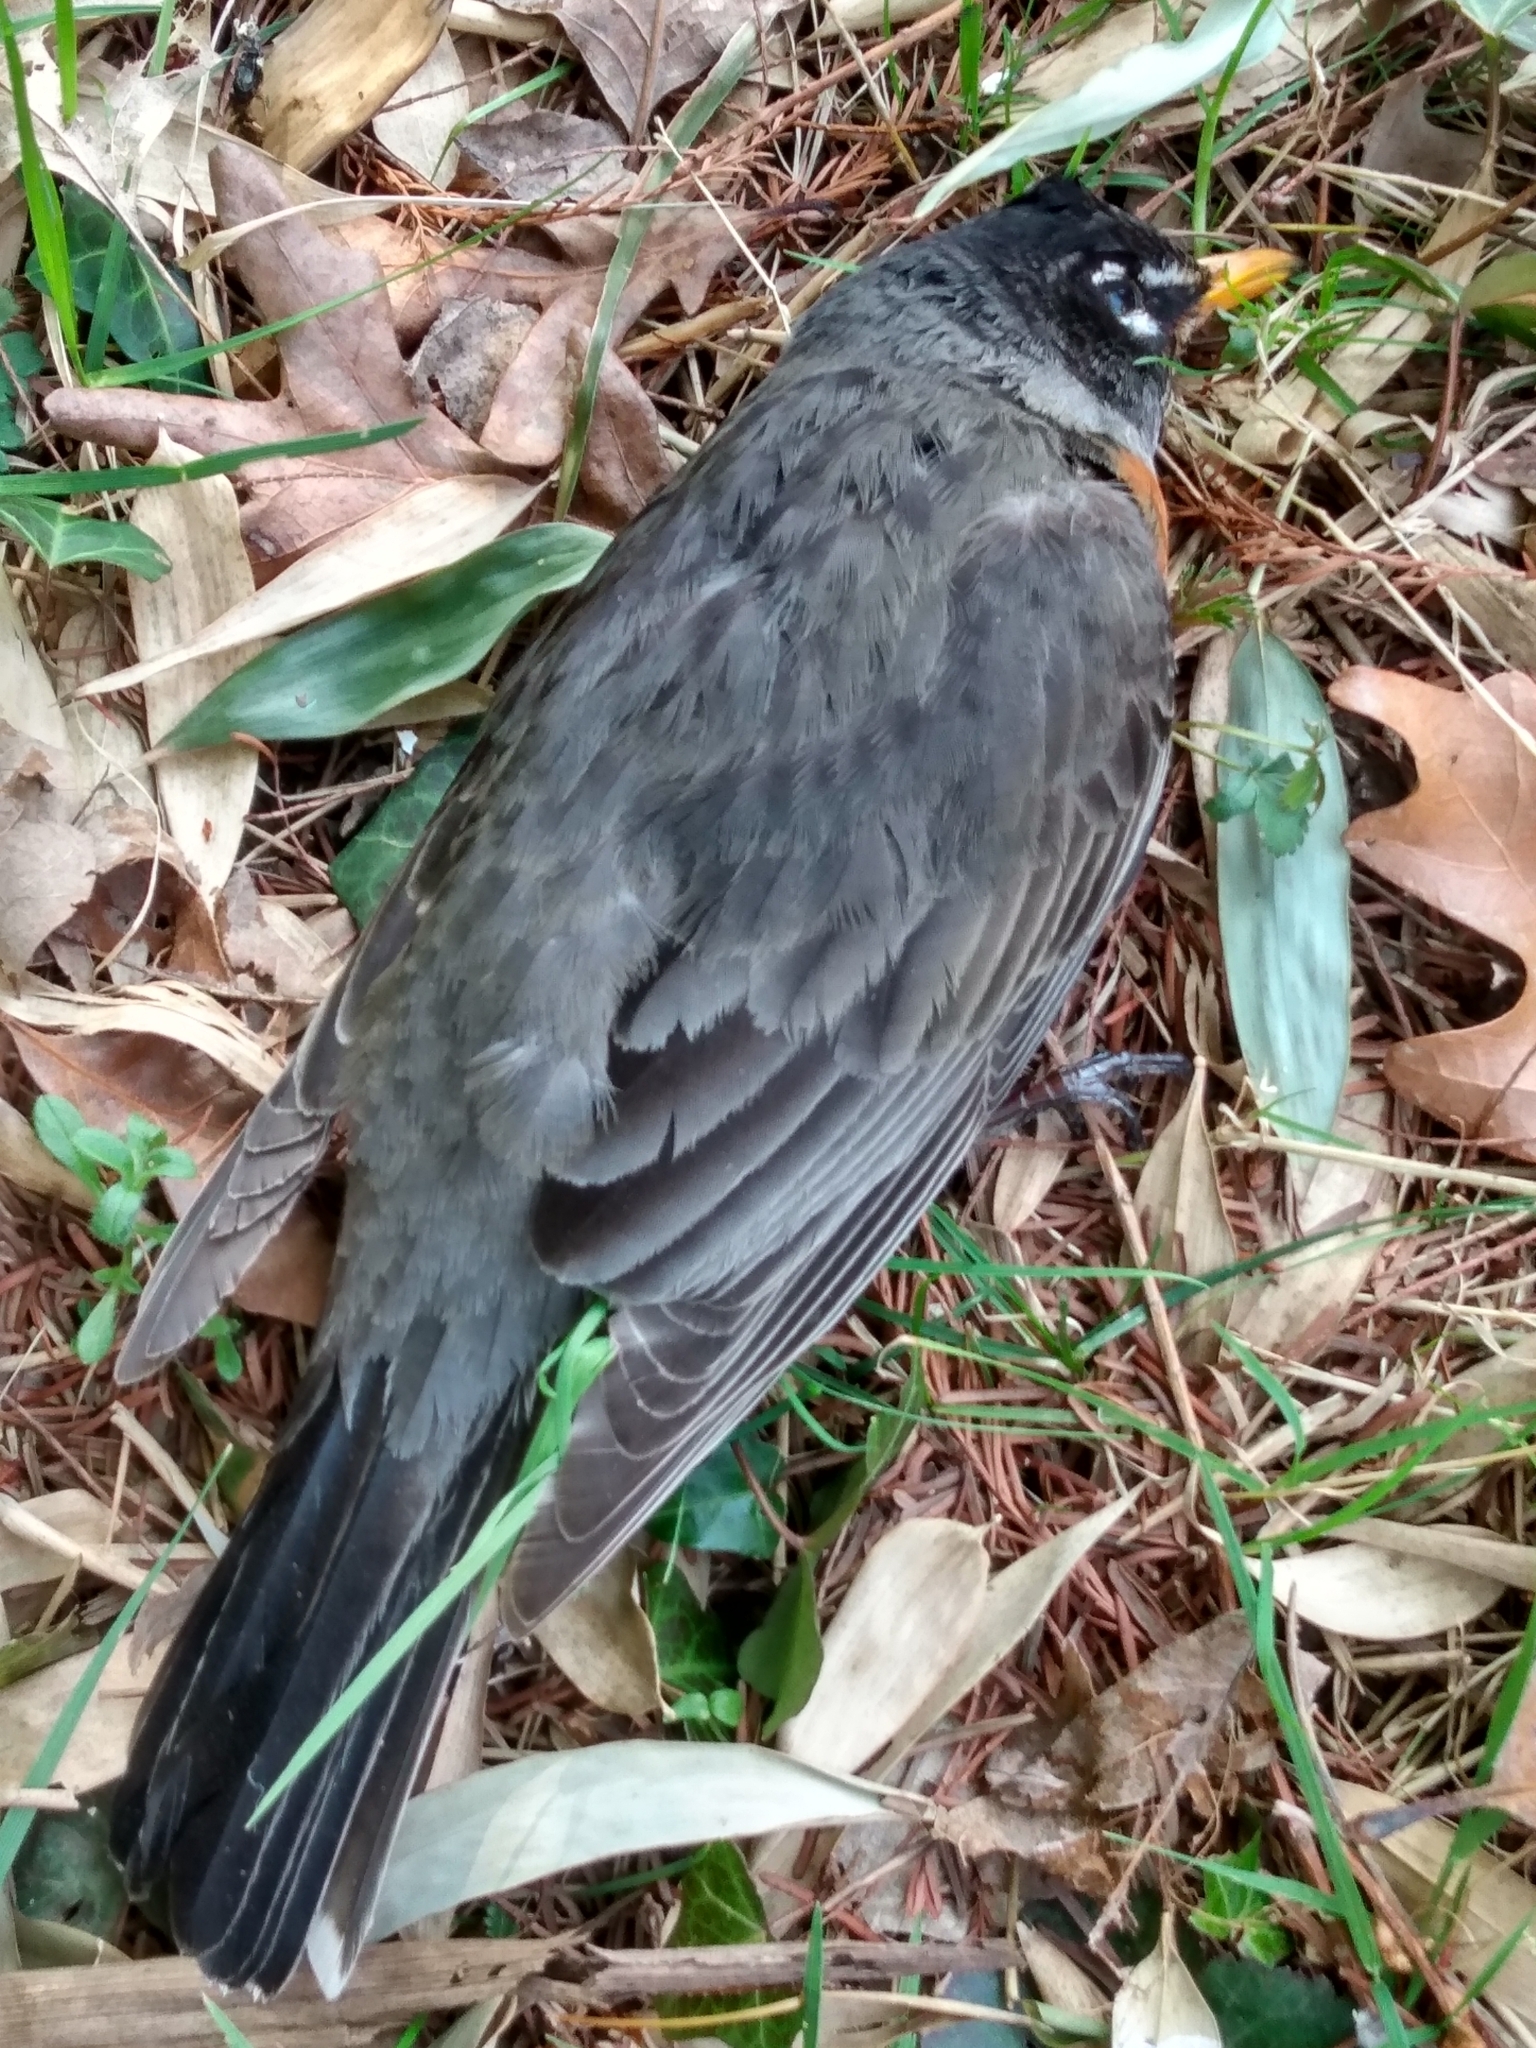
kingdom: Animalia
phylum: Chordata
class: Aves
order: Passeriformes
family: Turdidae
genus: Turdus
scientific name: Turdus migratorius
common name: American robin
